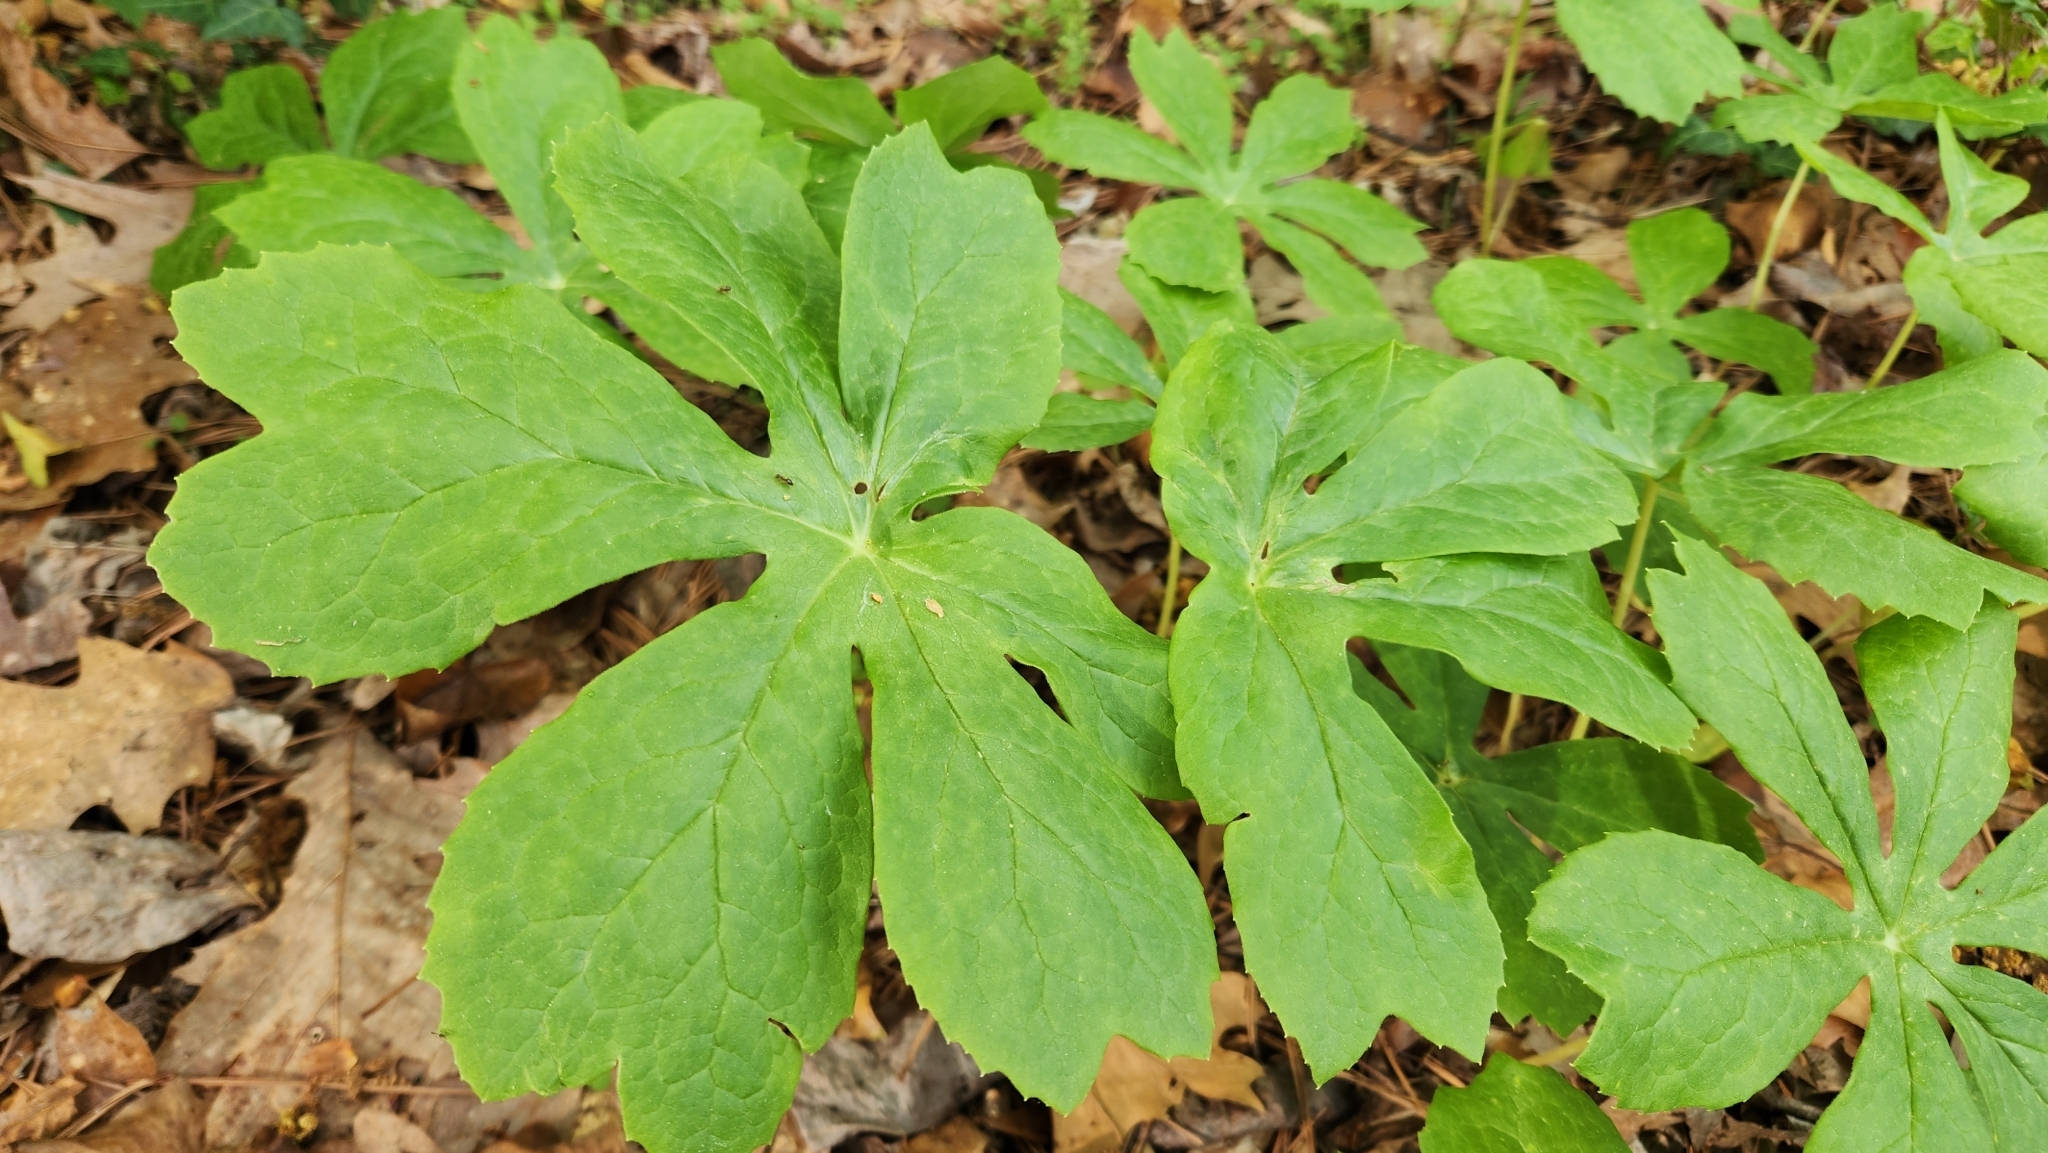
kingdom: Plantae
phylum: Tracheophyta
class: Magnoliopsida
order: Ranunculales
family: Berberidaceae
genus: Podophyllum
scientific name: Podophyllum peltatum
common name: Wild mandrake
